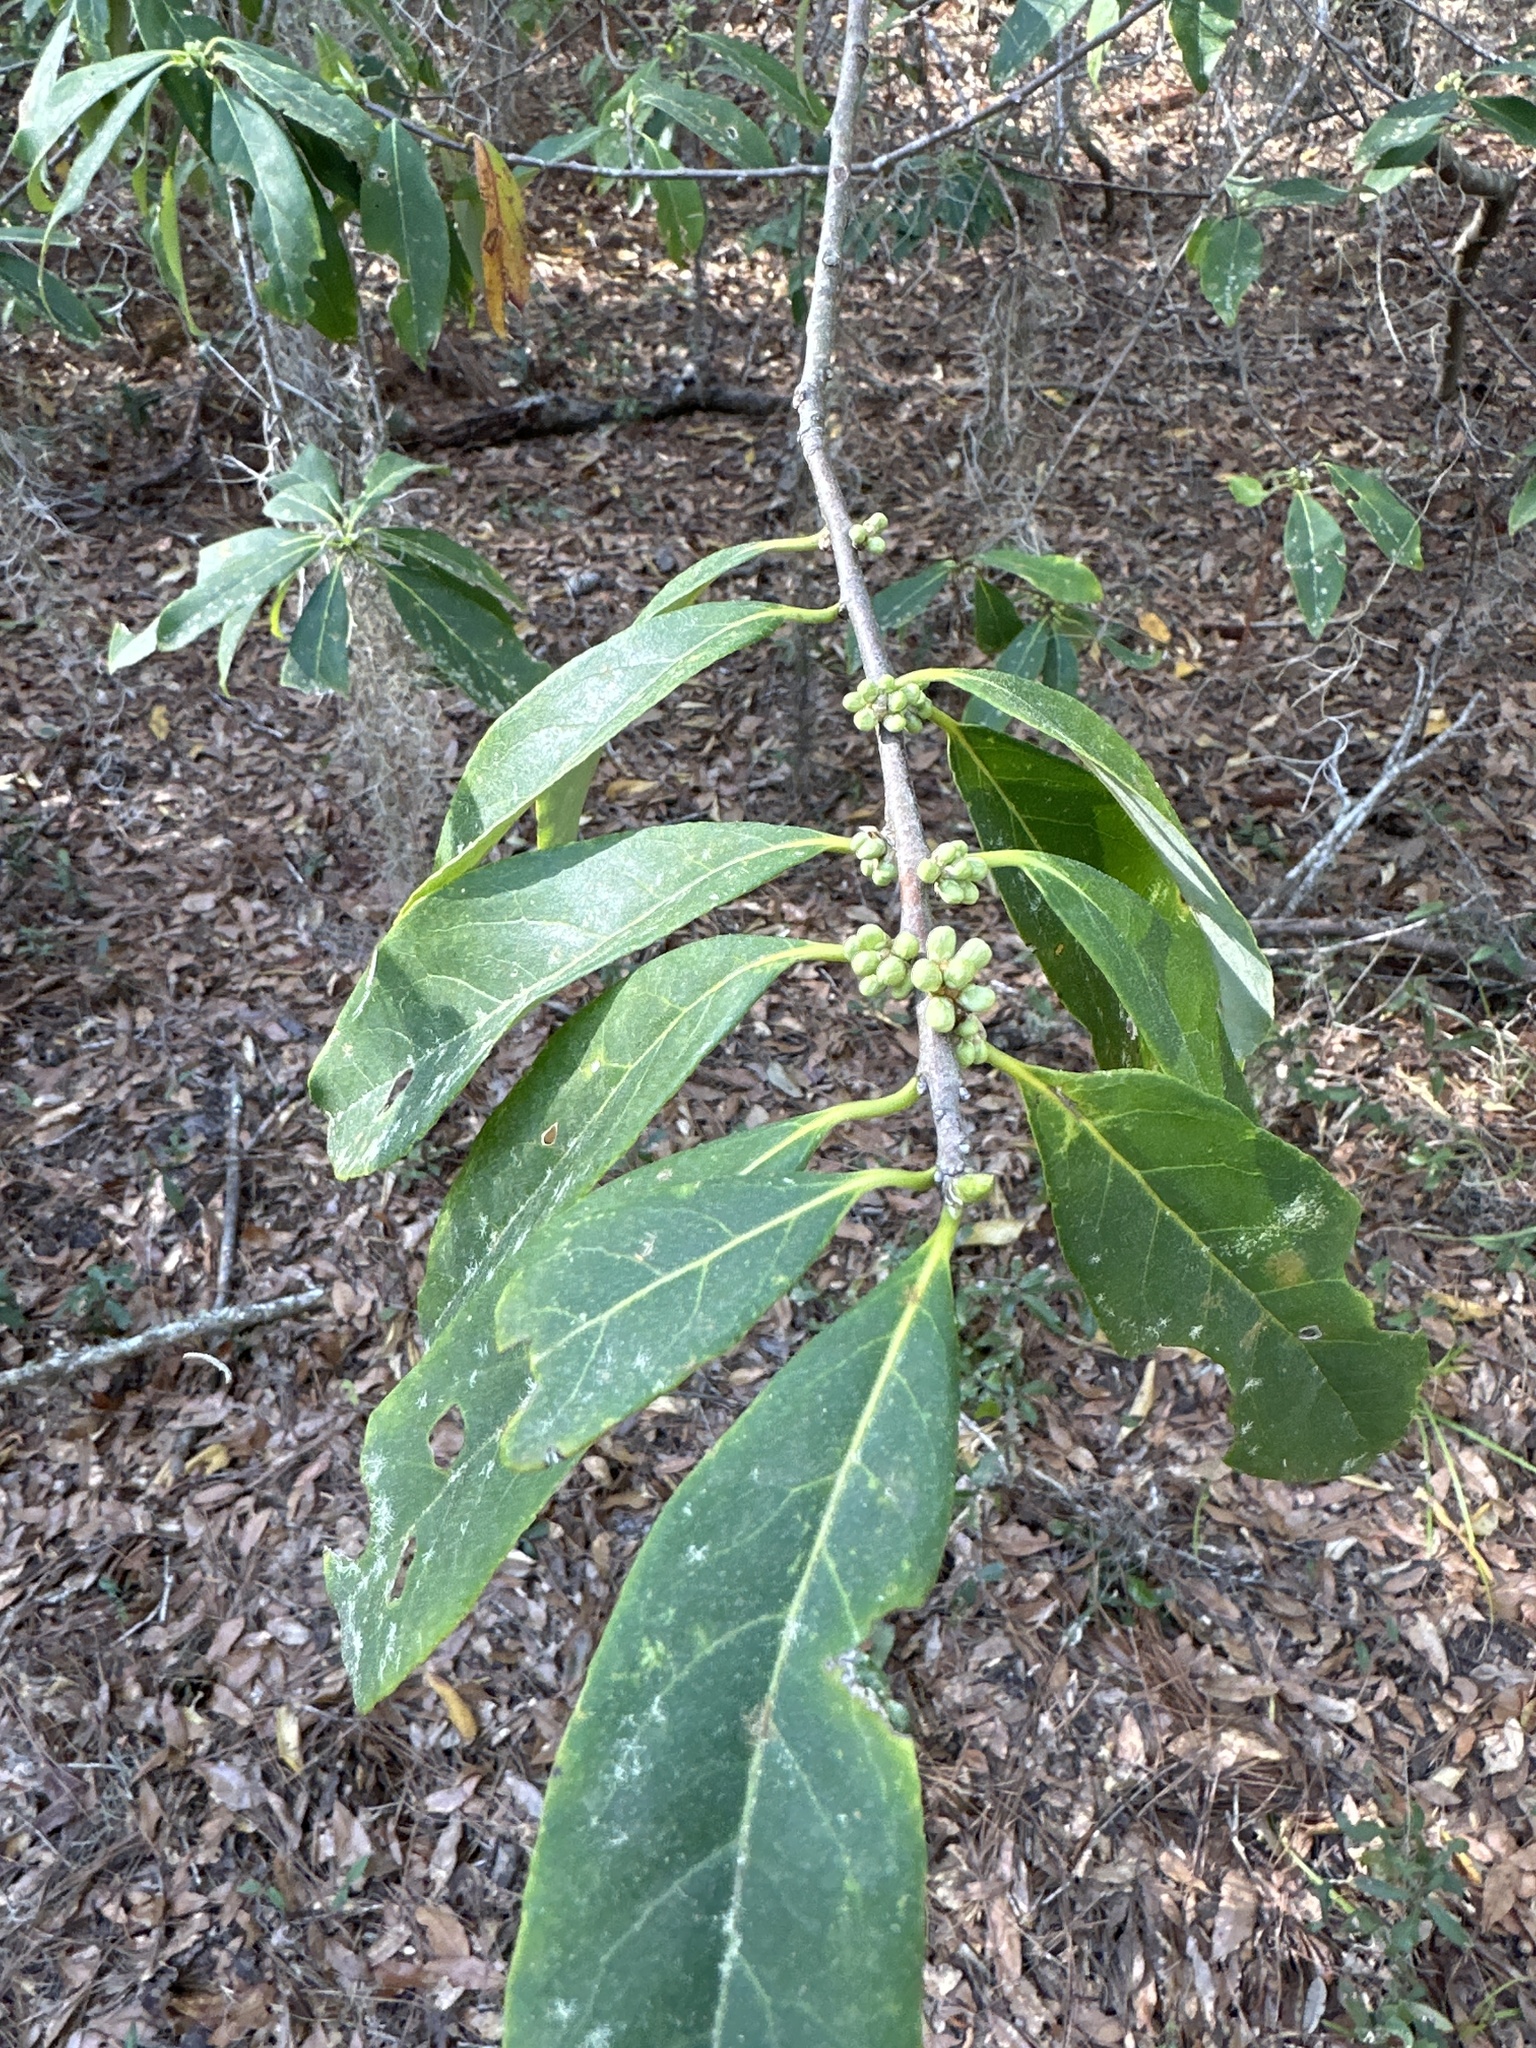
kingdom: Plantae
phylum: Tracheophyta
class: Magnoliopsida
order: Ericales
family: Symplocaceae
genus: Symplocos
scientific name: Symplocos tinctoria
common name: Horse-sugar
